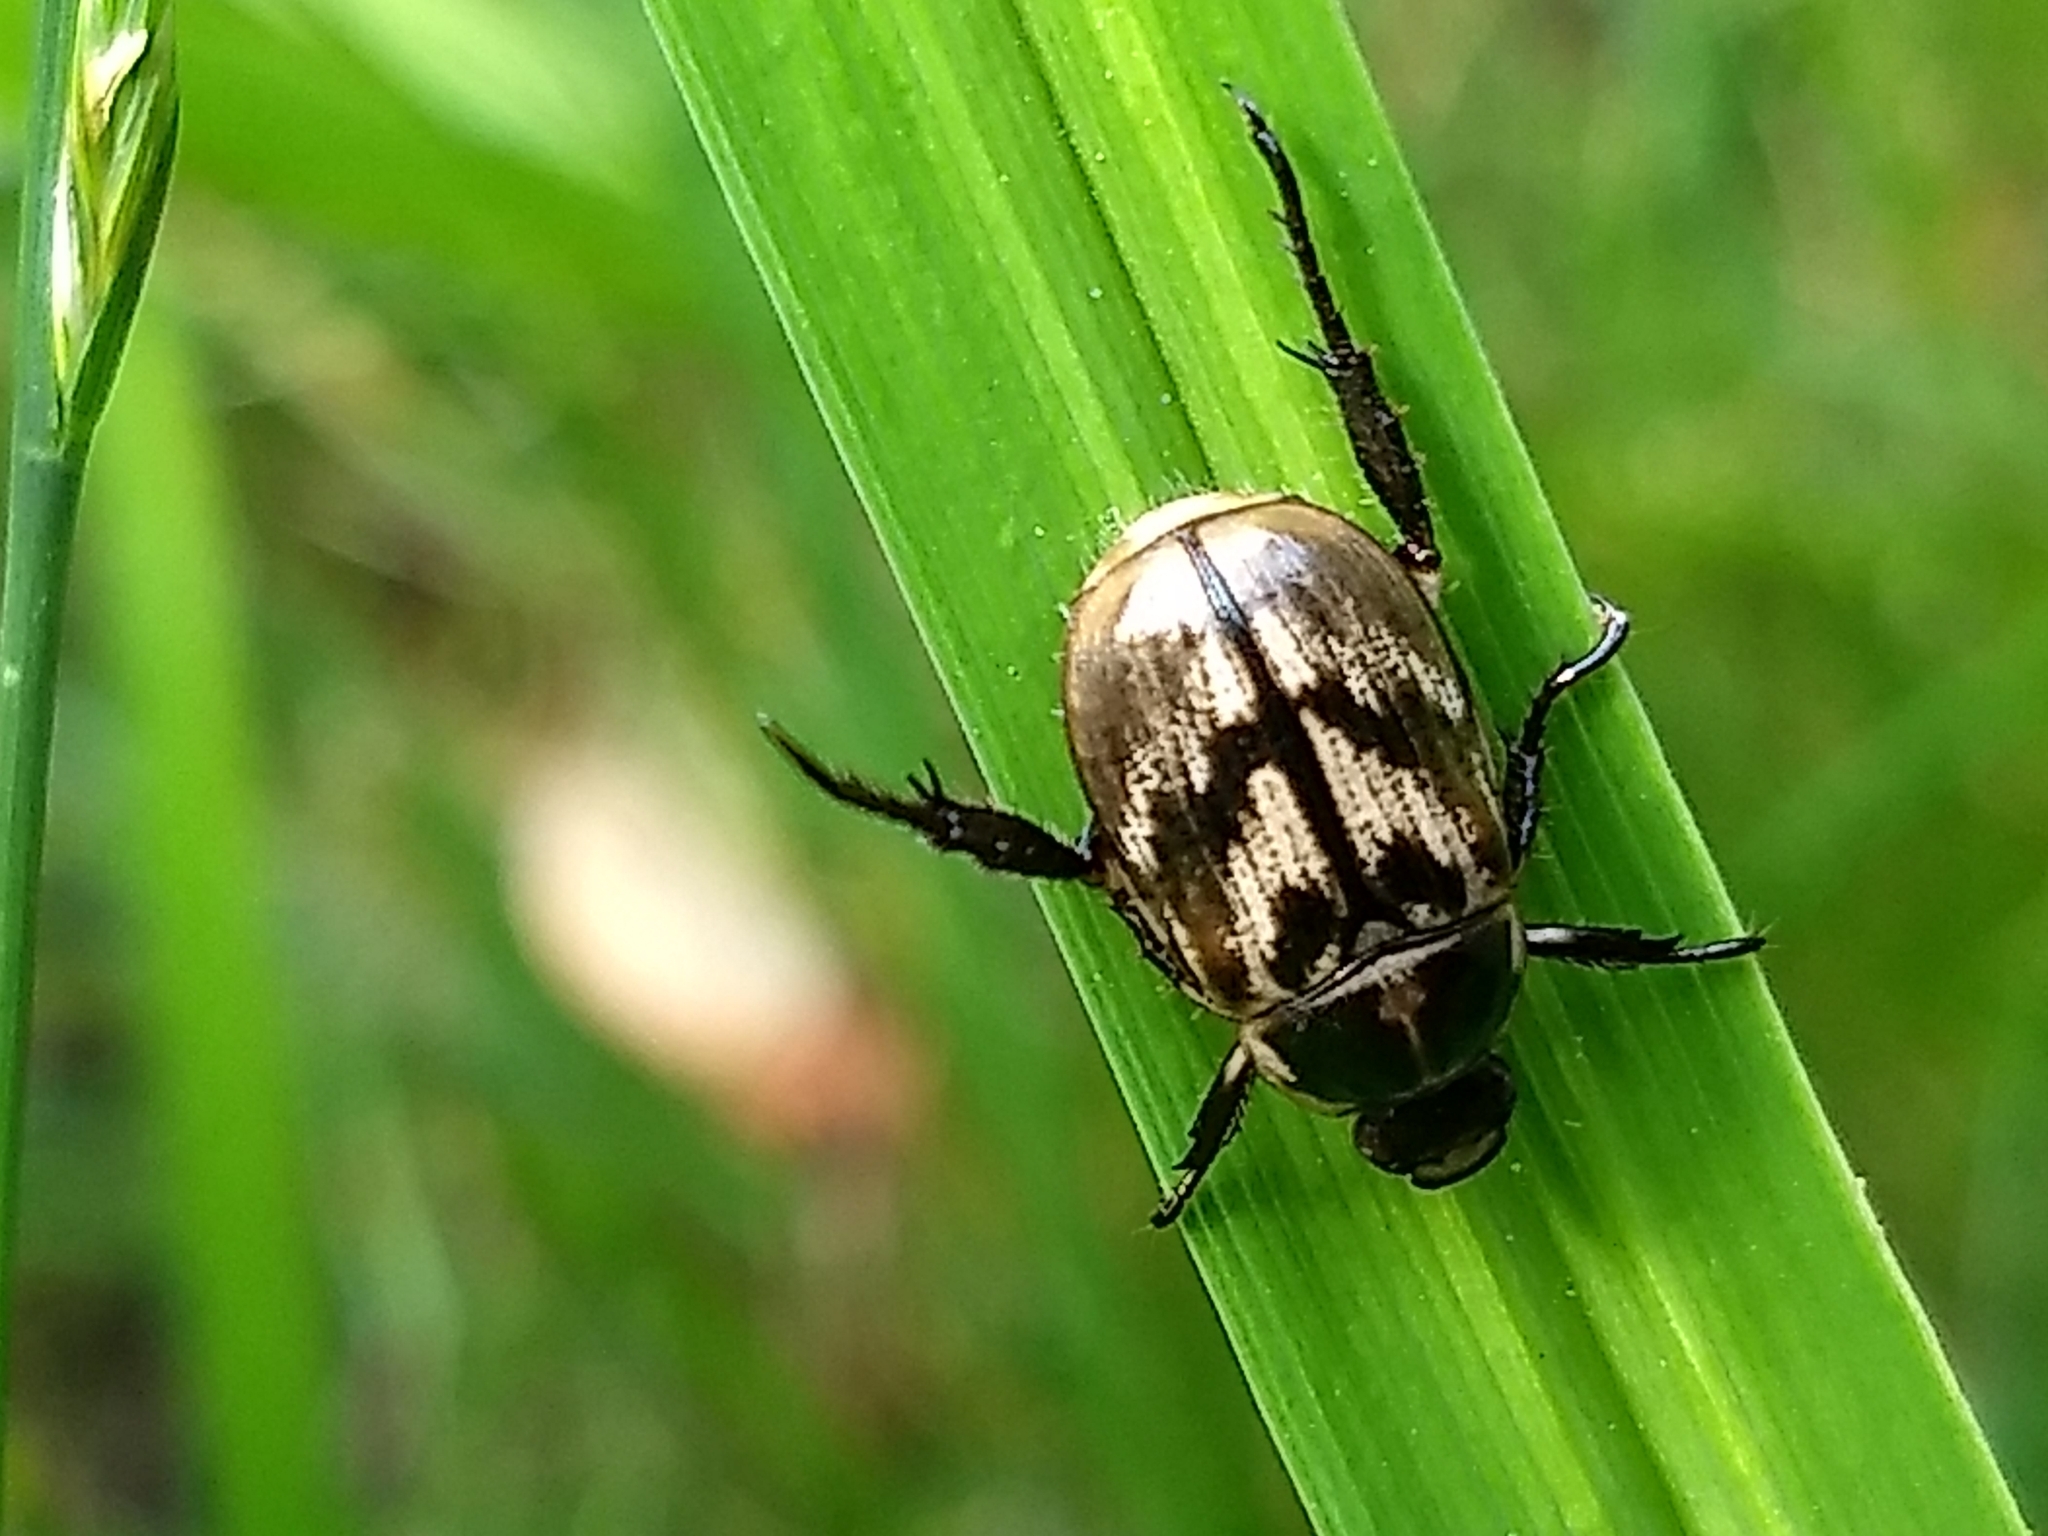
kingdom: Animalia
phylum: Arthropoda
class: Insecta
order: Coleoptera
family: Scarabaeidae
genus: Exomala
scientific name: Exomala orientalis
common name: Oriental beetle
